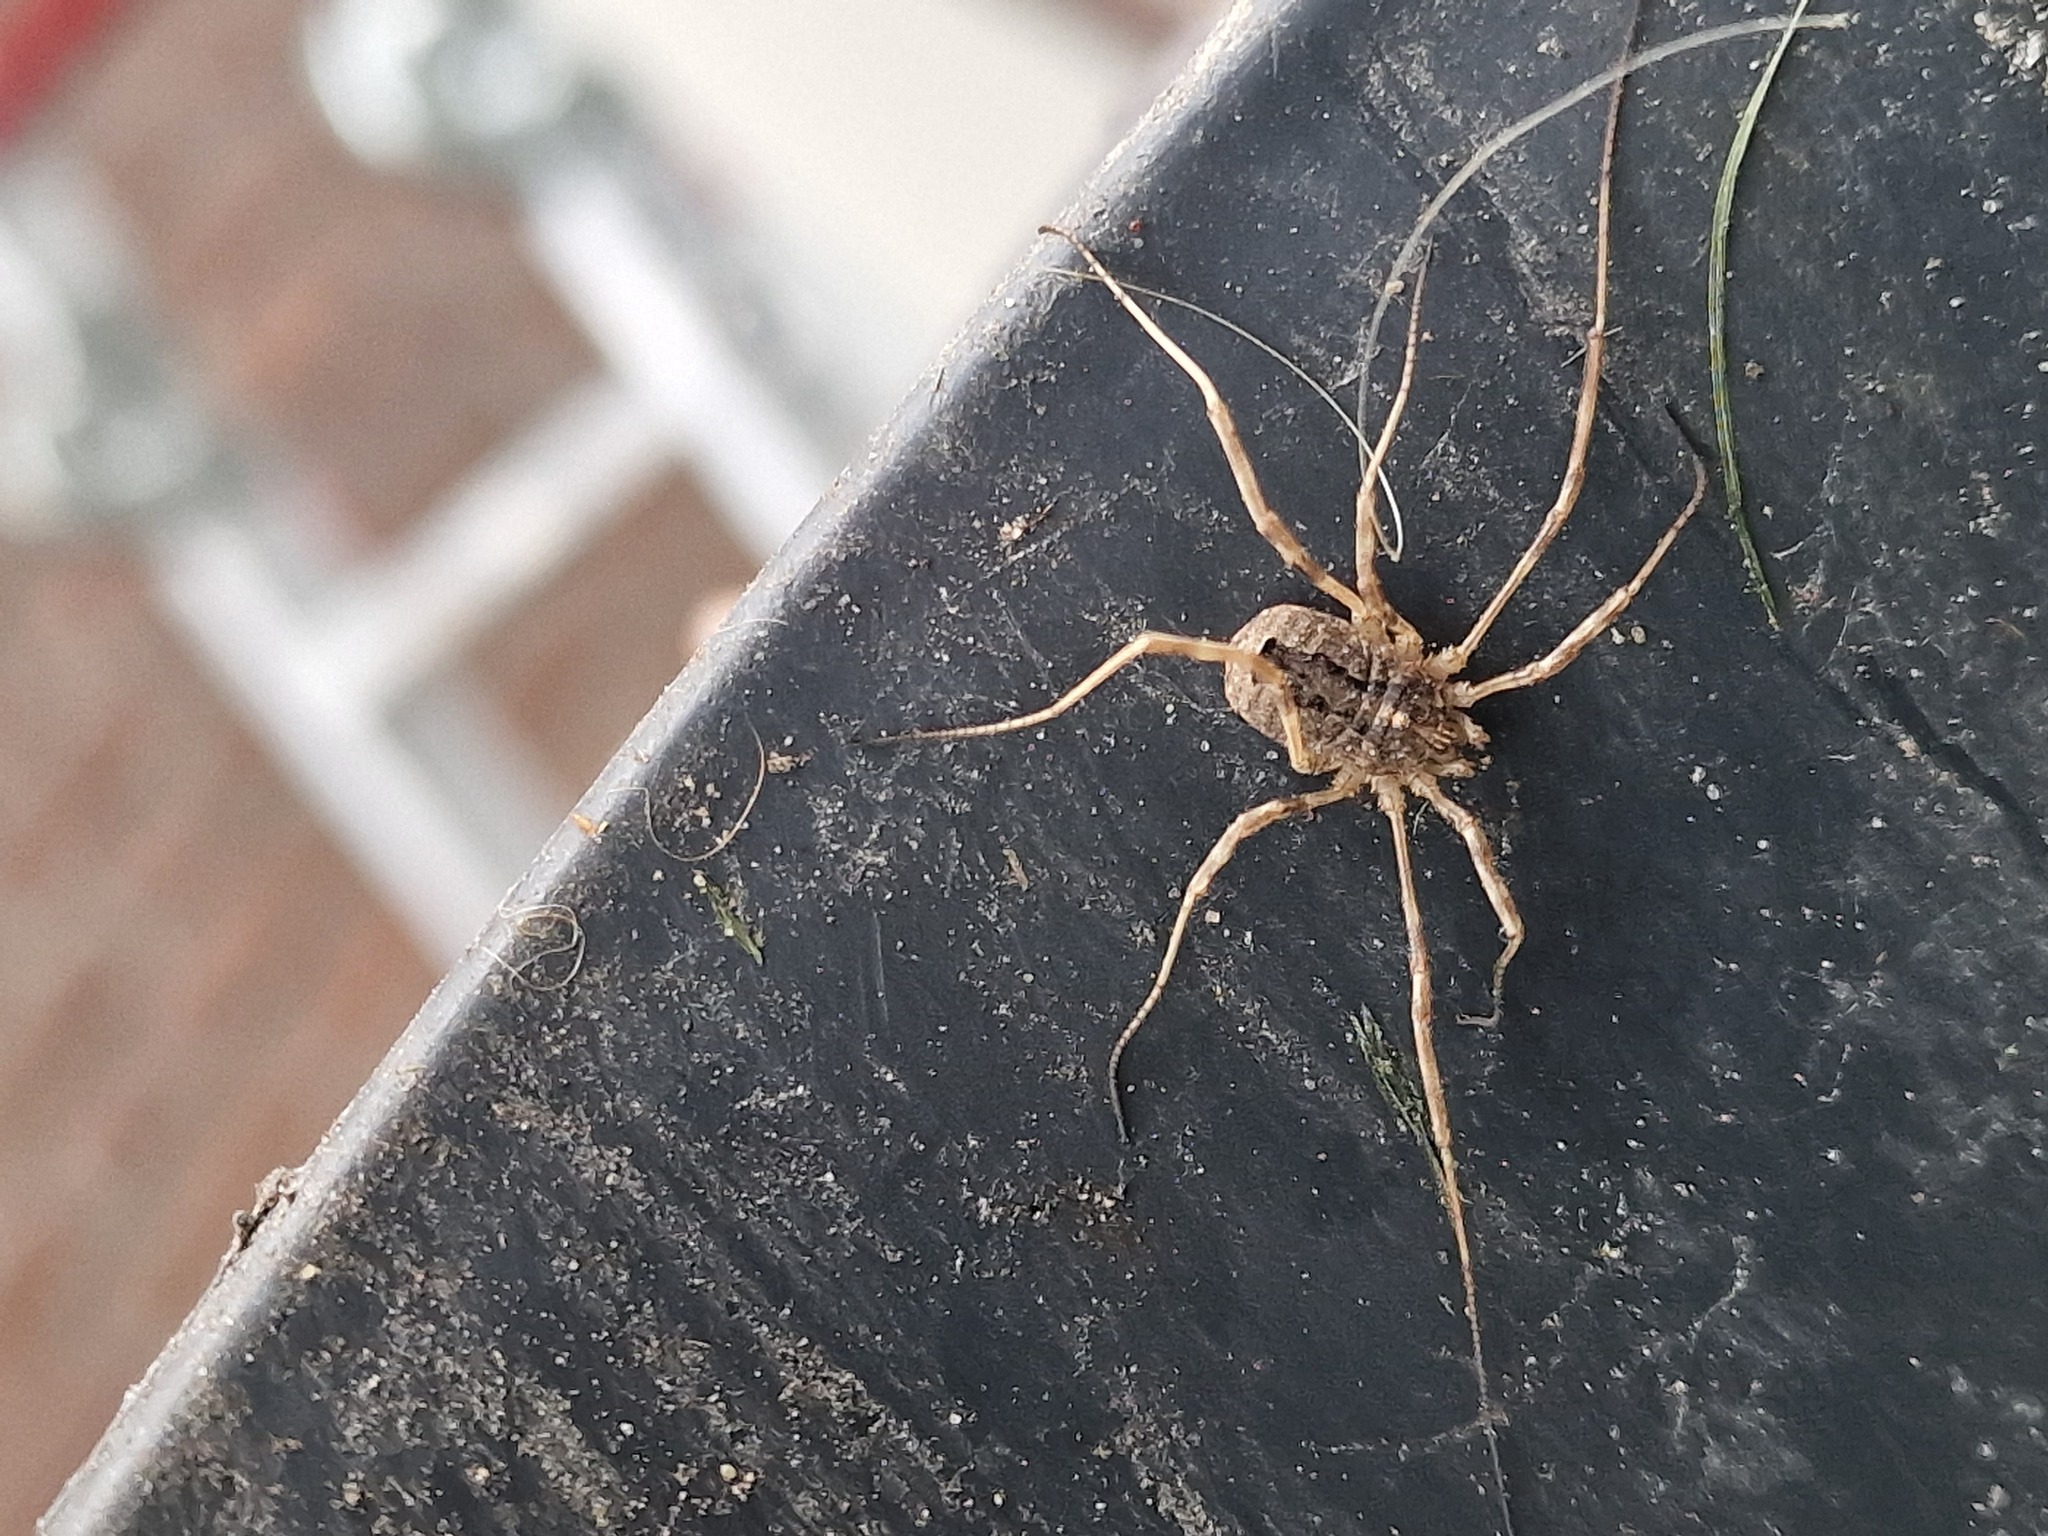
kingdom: Animalia
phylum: Arthropoda
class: Arachnida
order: Opiliones
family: Phalangiidae
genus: Odiellus
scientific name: Odiellus spinosus
